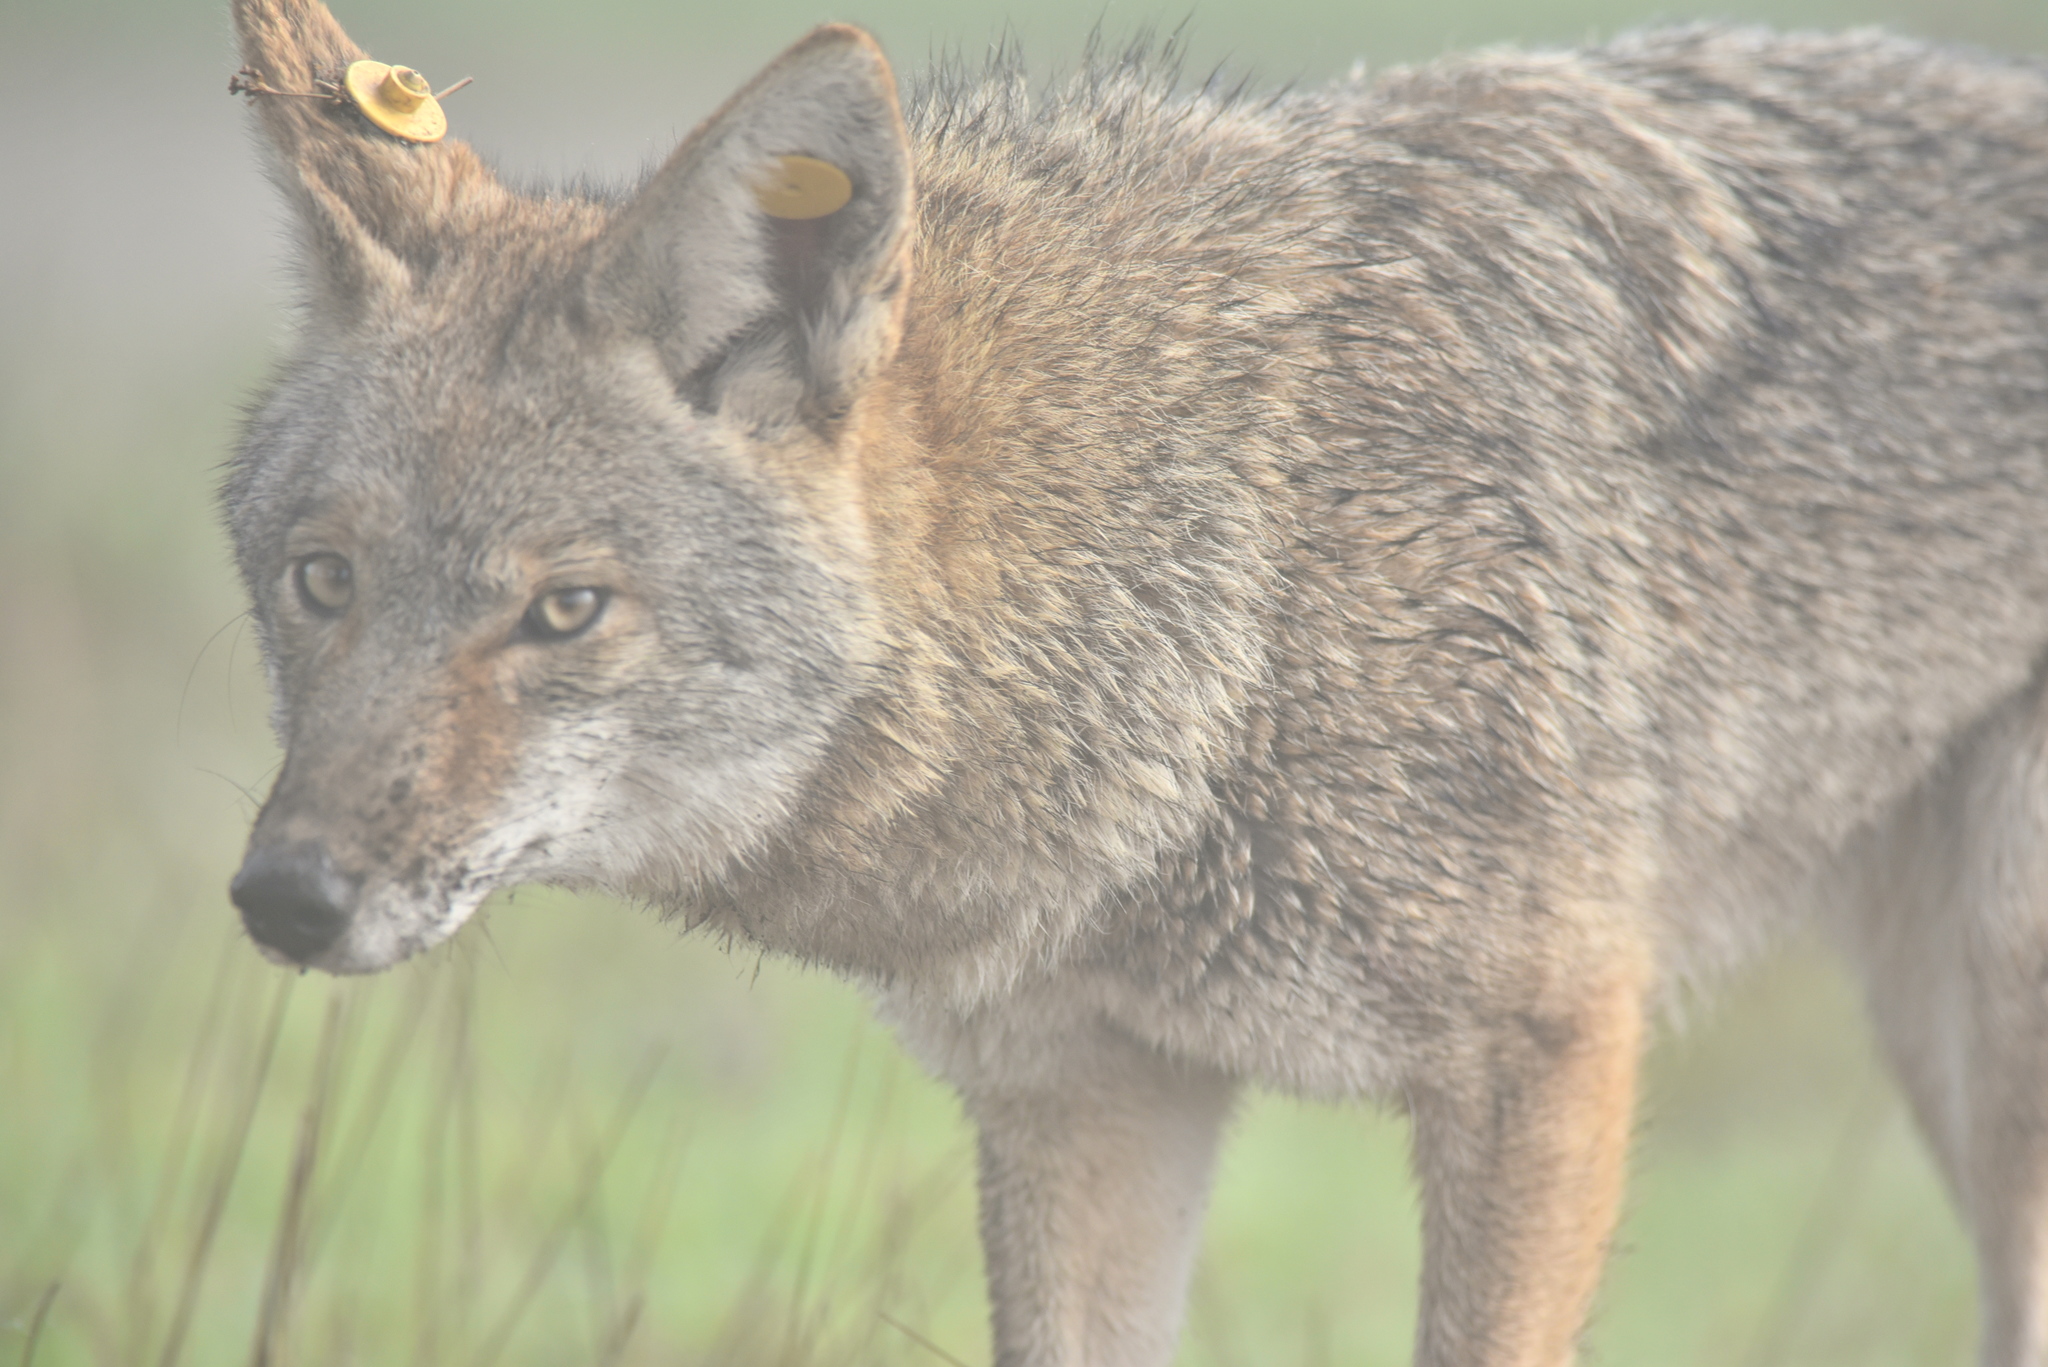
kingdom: Animalia
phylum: Chordata
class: Mammalia
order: Carnivora
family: Canidae
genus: Canis
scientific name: Canis latrans
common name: Coyote
